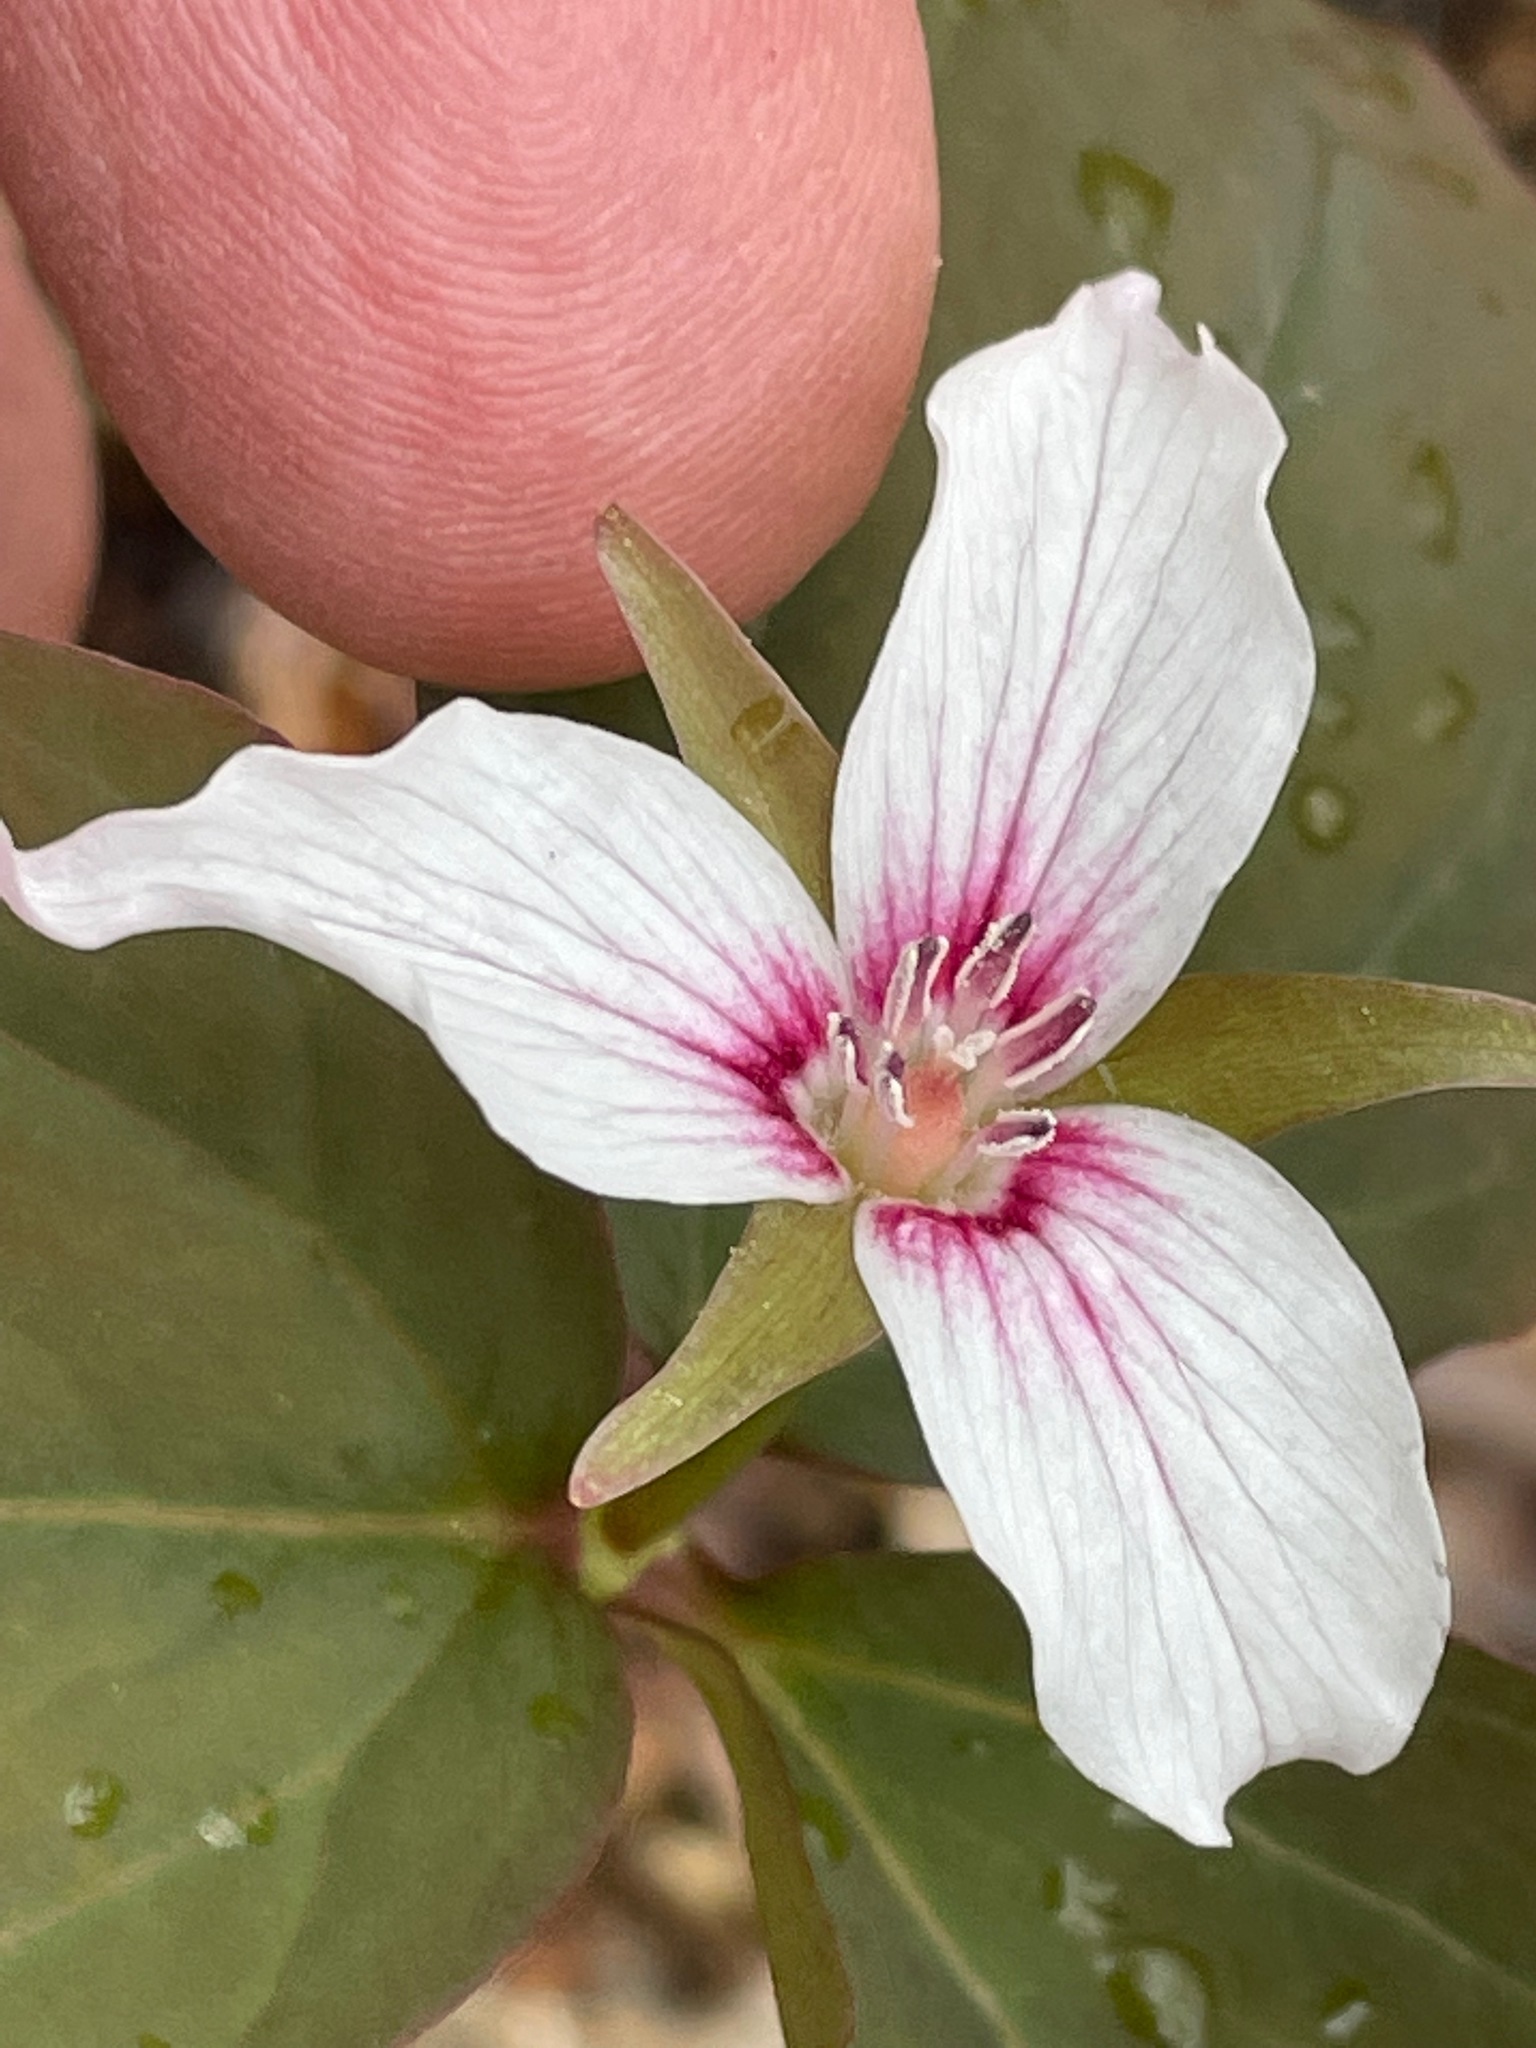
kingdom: Plantae
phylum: Tracheophyta
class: Liliopsida
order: Liliales
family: Melanthiaceae
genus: Trillium
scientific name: Trillium undulatum
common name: Paint trillium
